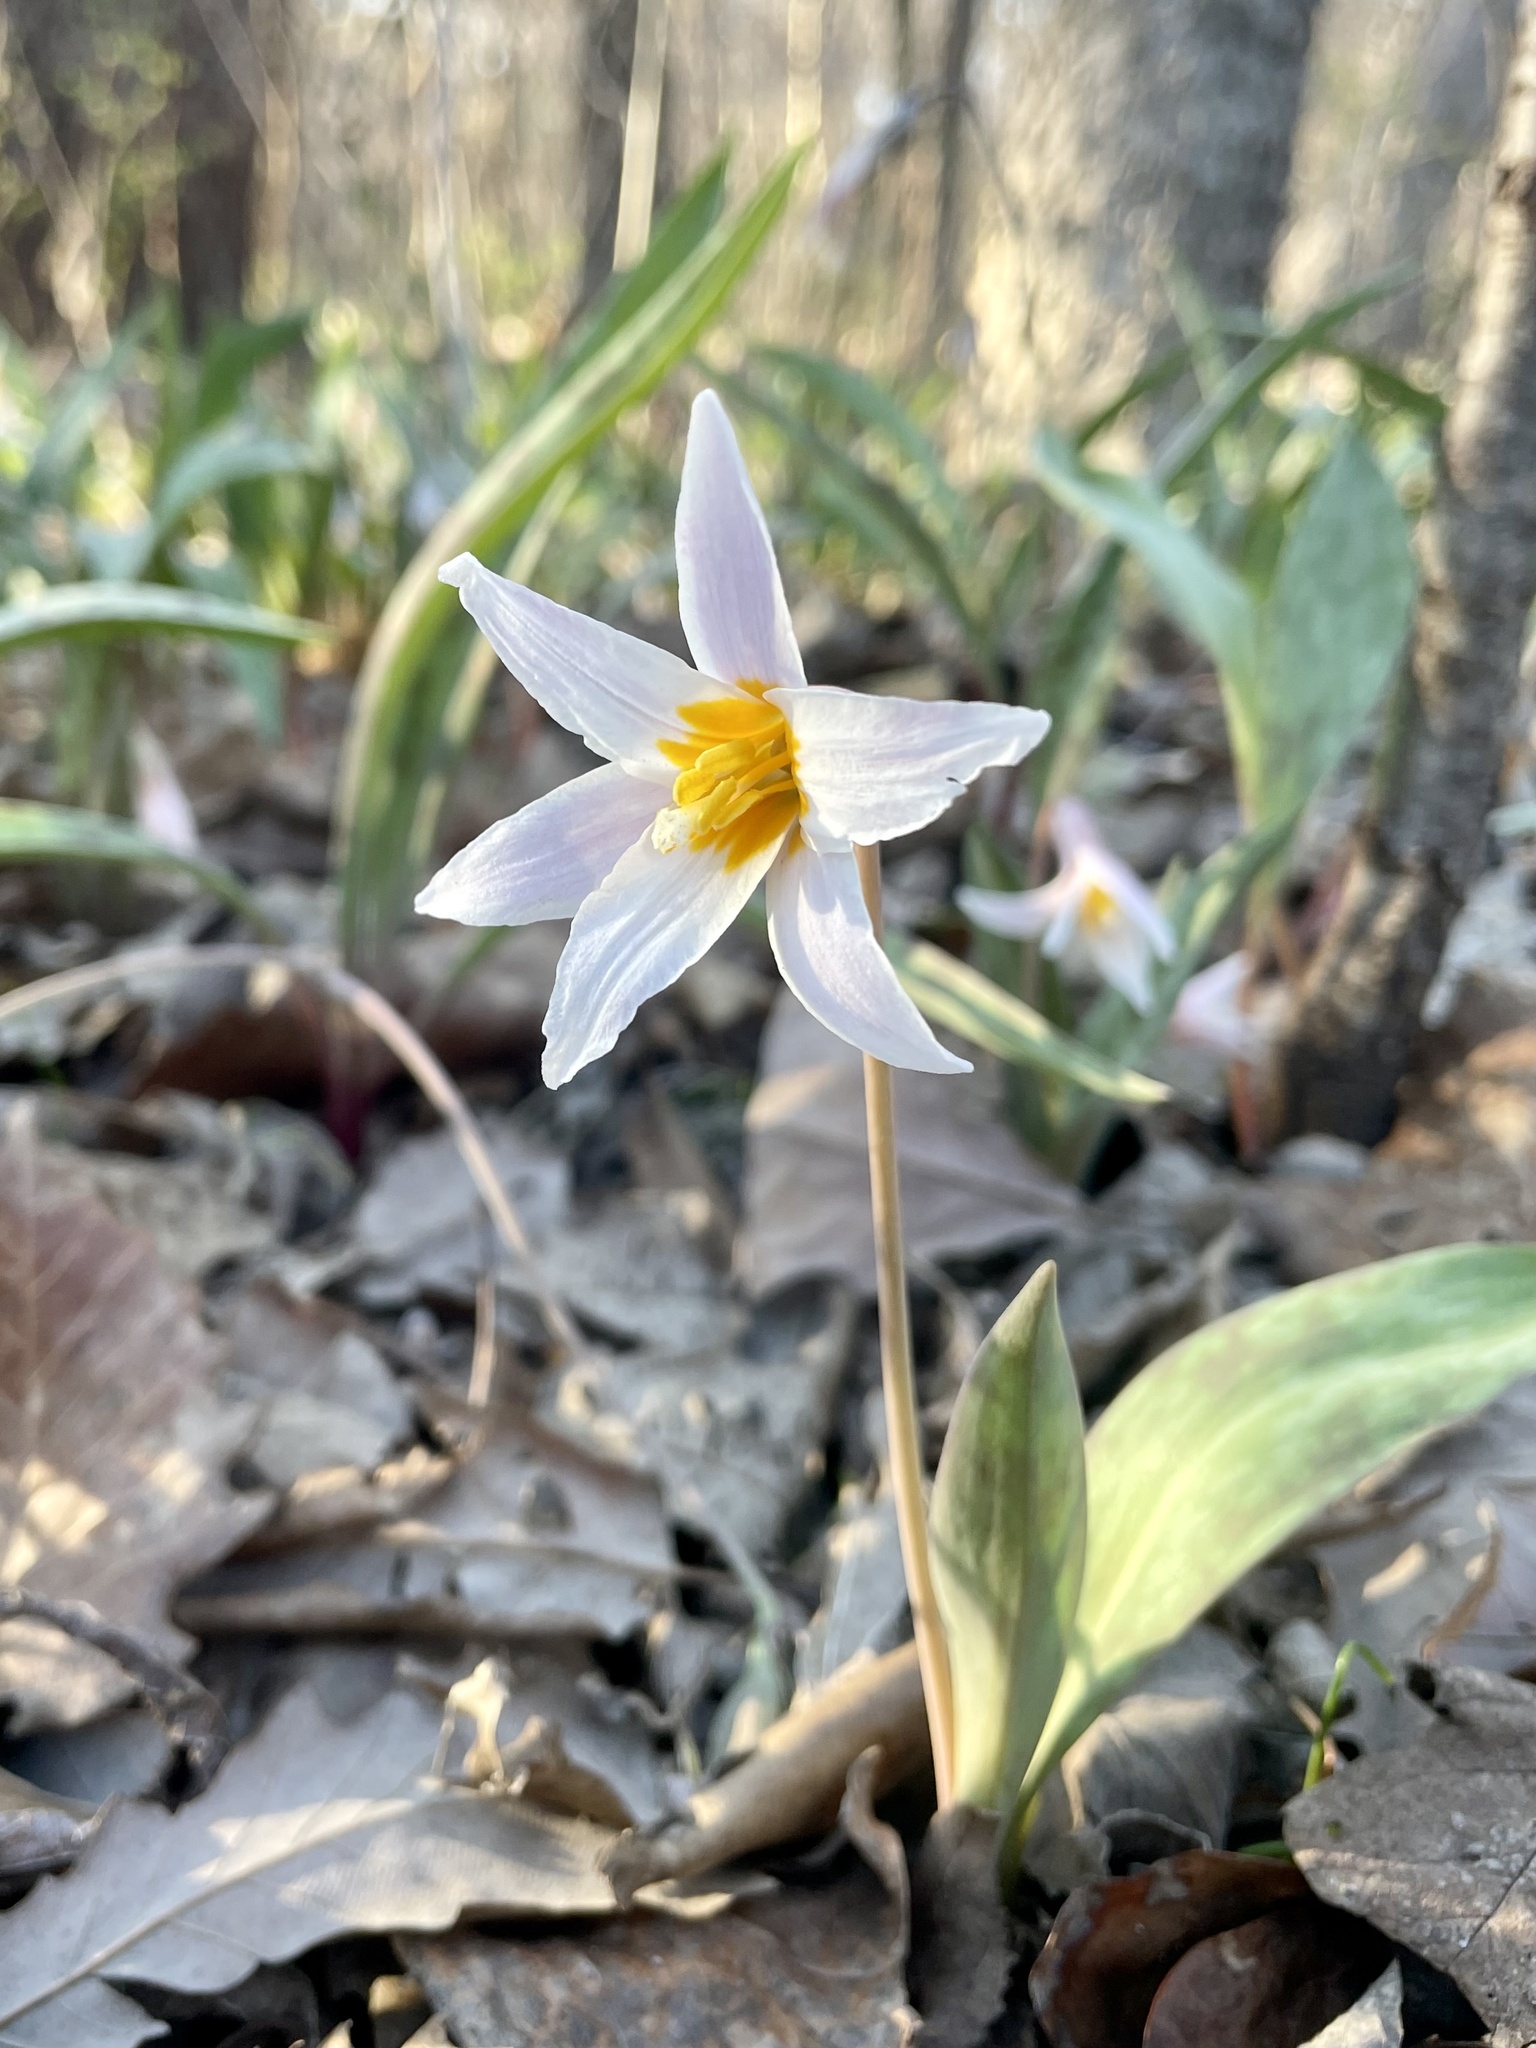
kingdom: Plantae
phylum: Tracheophyta
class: Liliopsida
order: Liliales
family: Liliaceae
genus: Erythronium
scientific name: Erythronium albidum
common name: White trout-lily
